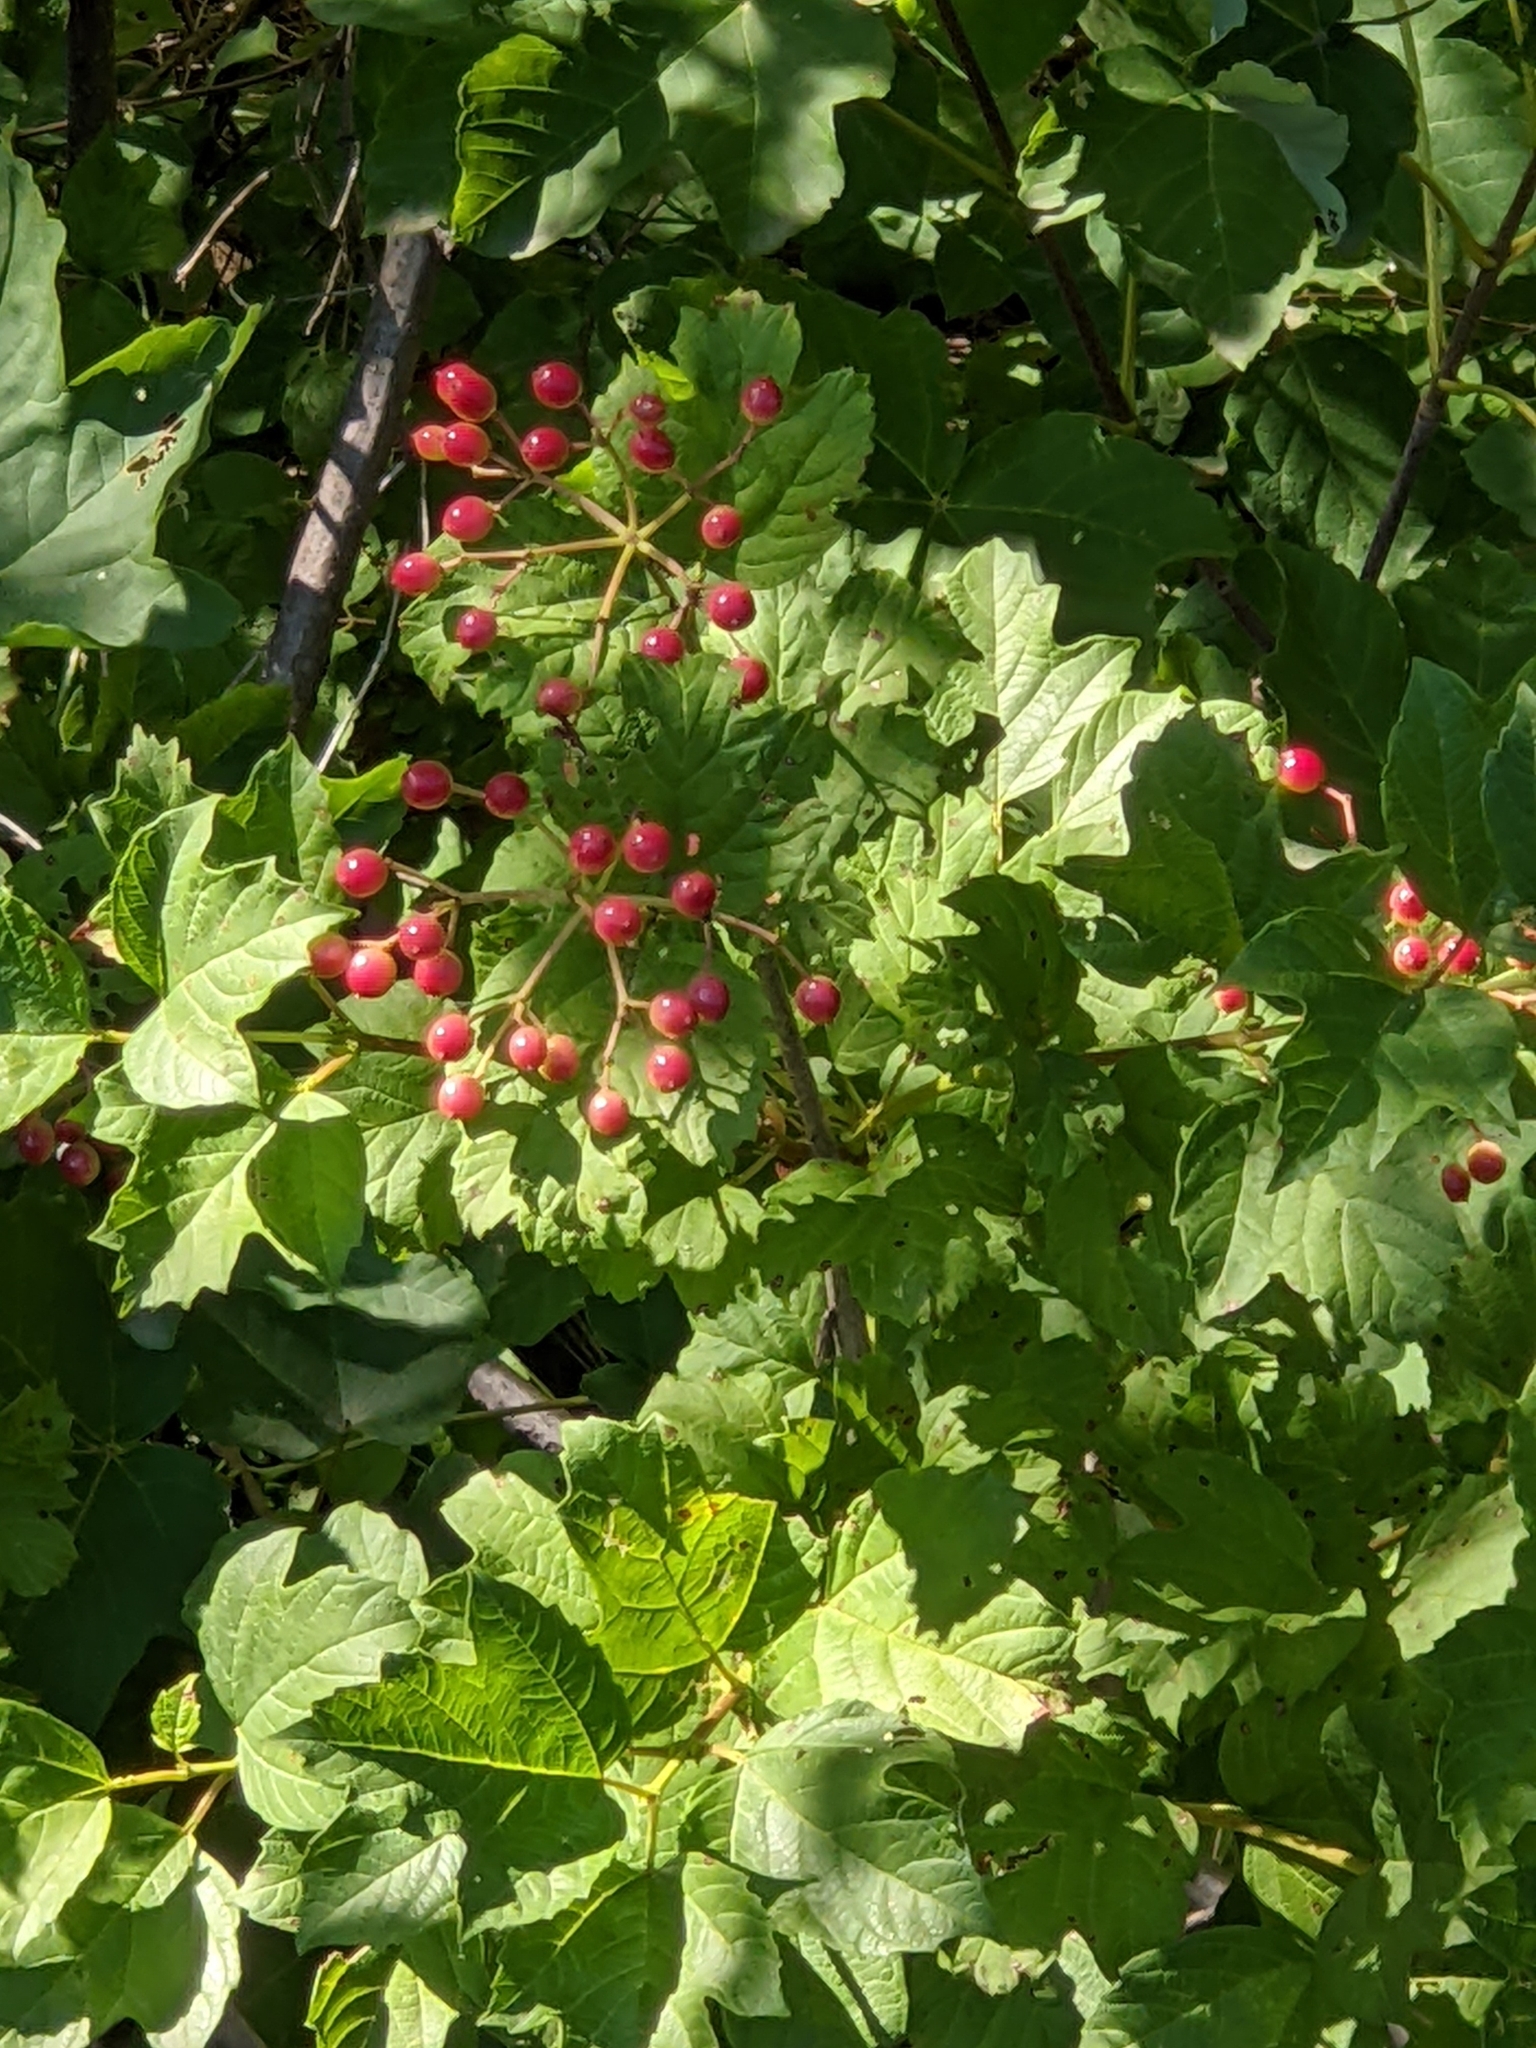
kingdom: Plantae
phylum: Tracheophyta
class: Magnoliopsida
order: Dipsacales
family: Viburnaceae
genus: Viburnum
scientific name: Viburnum opulus
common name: Guelder-rose
